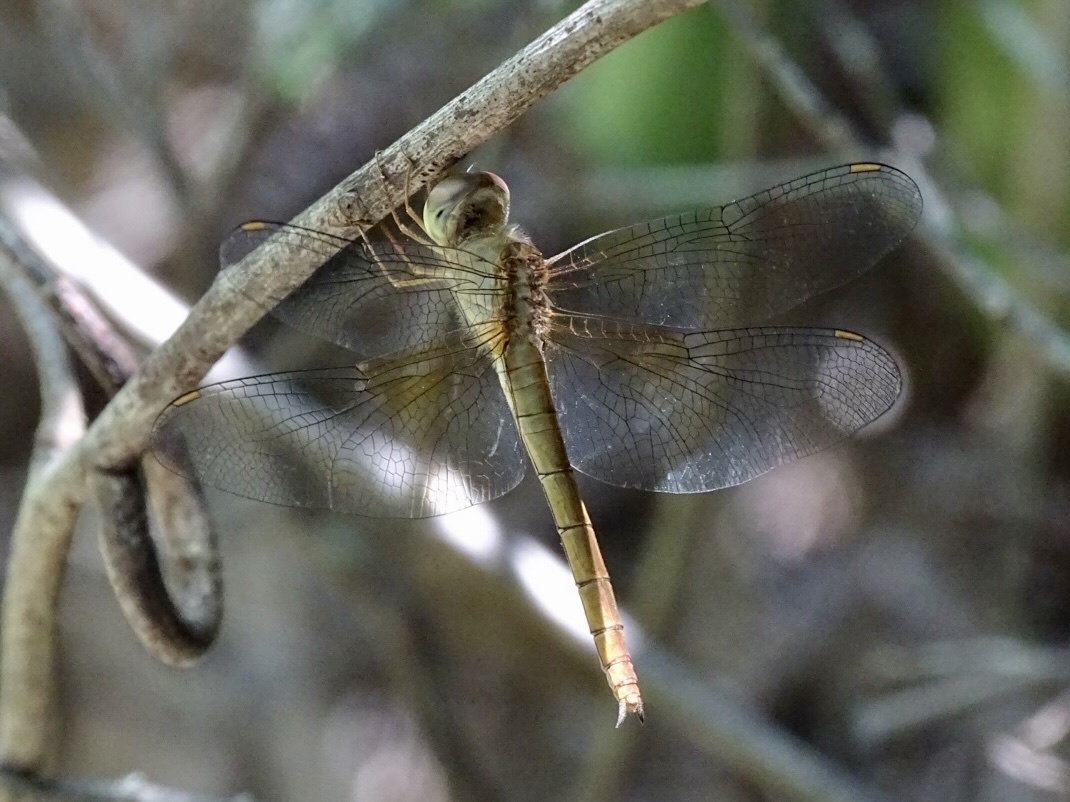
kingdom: Animalia
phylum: Arthropoda
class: Insecta
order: Odonata
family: Libellulidae
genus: Tholymis
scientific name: Tholymis tillarga
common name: Coral-tailed cloud wing
